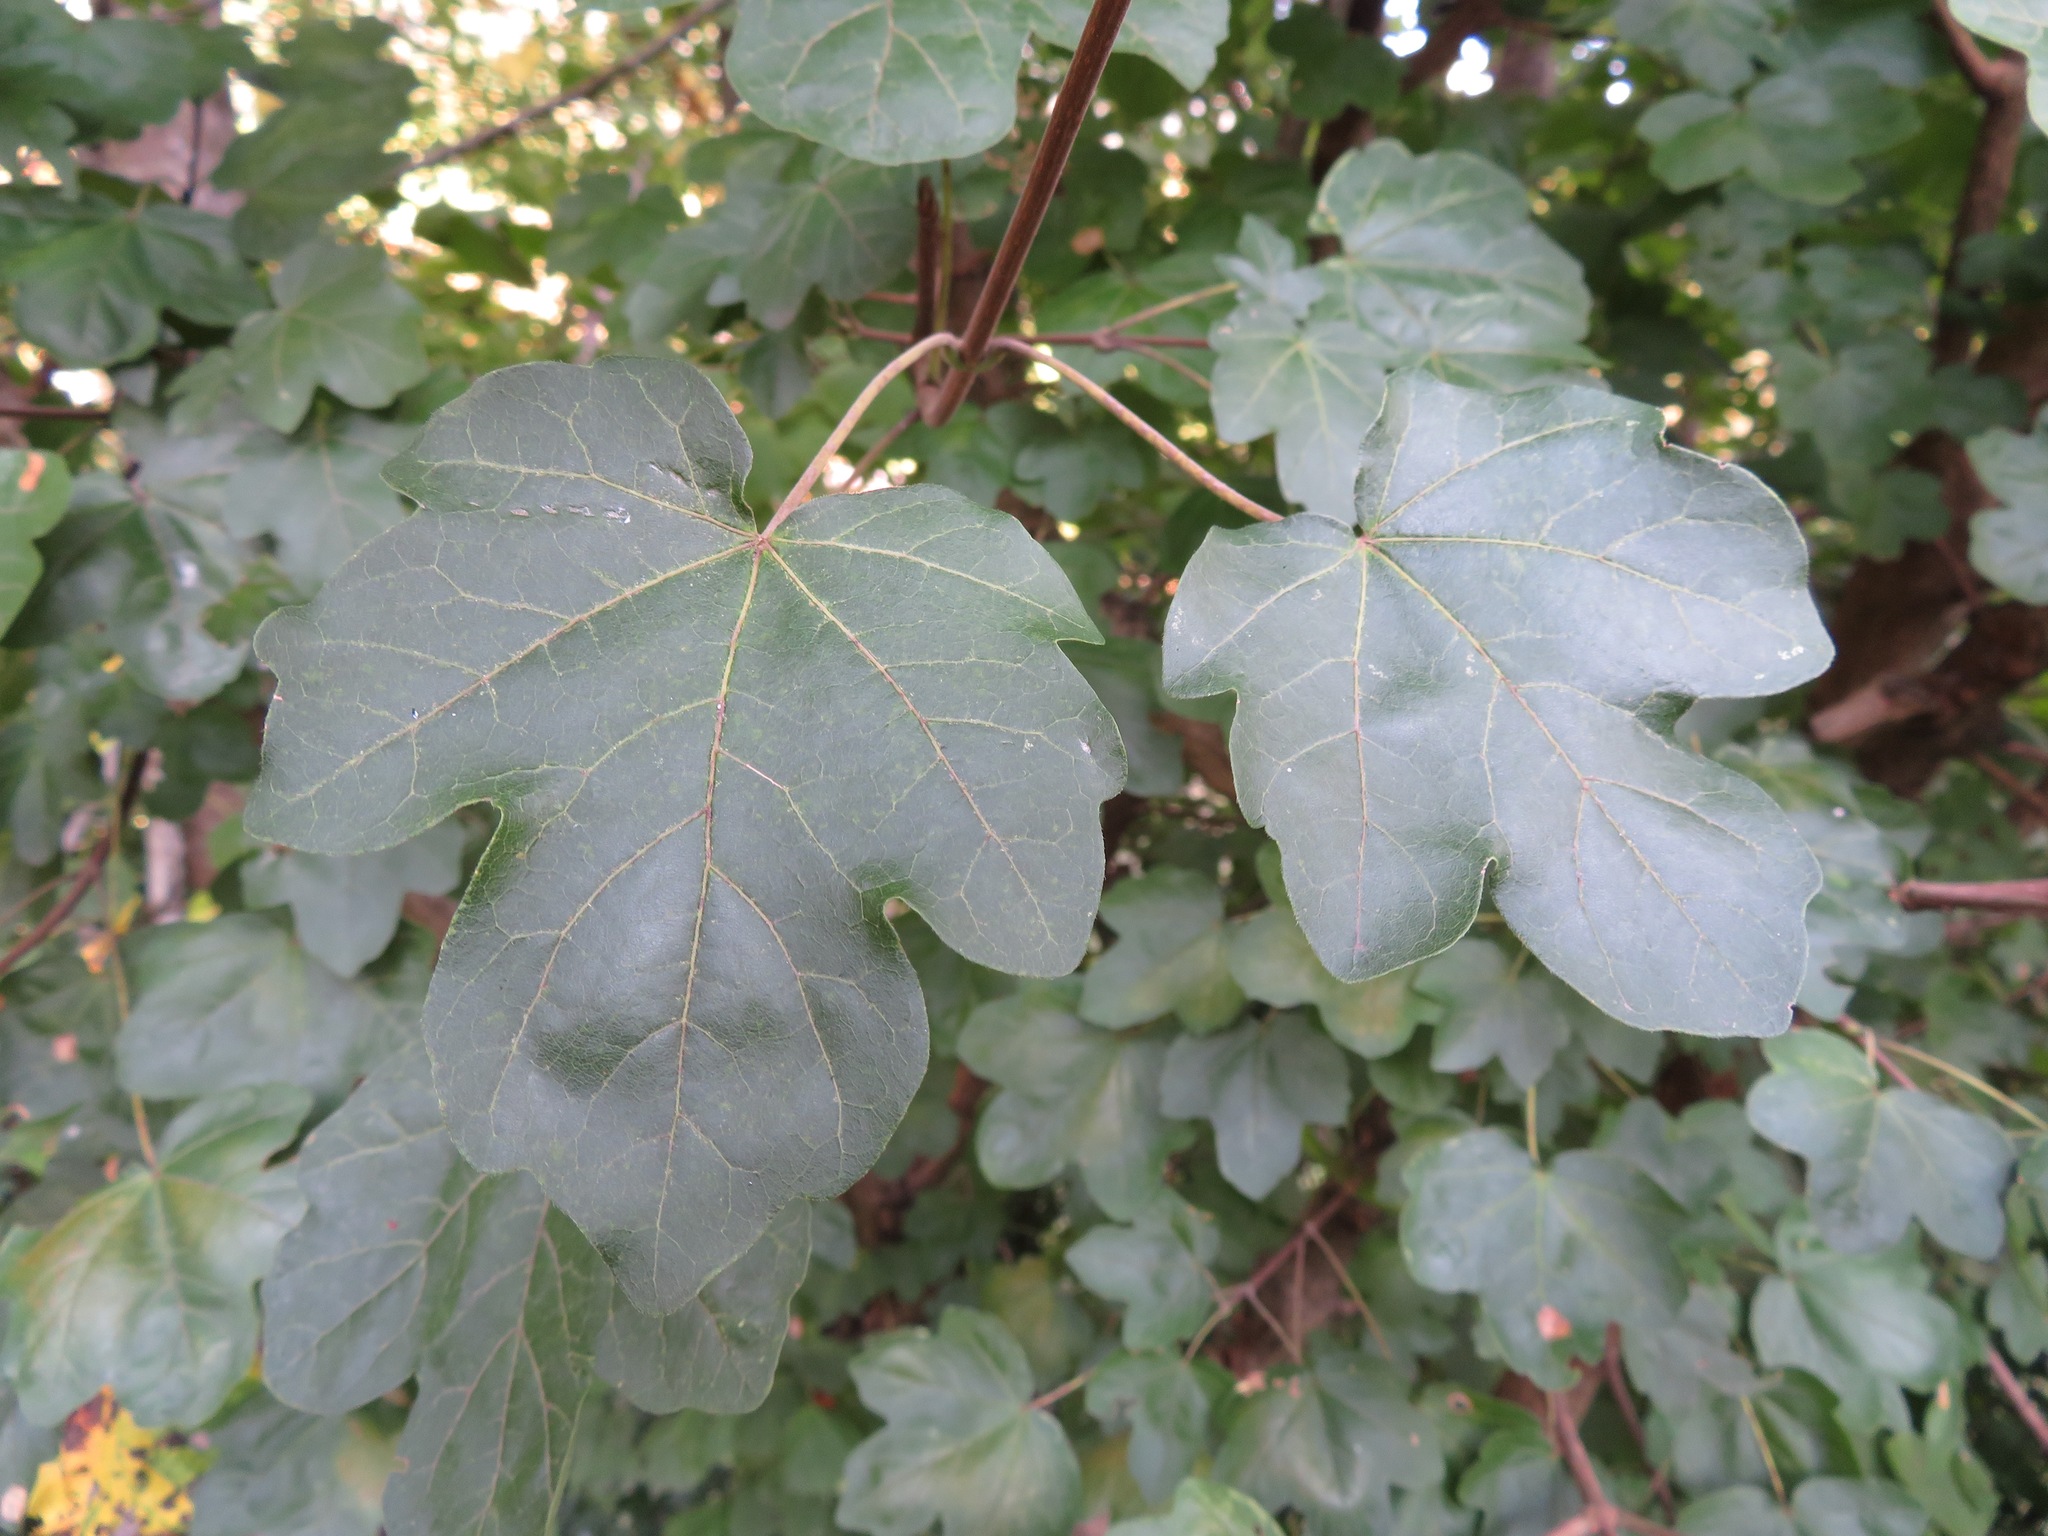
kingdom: Plantae
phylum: Tracheophyta
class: Magnoliopsida
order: Sapindales
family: Sapindaceae
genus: Acer
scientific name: Acer campestre
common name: Field maple
